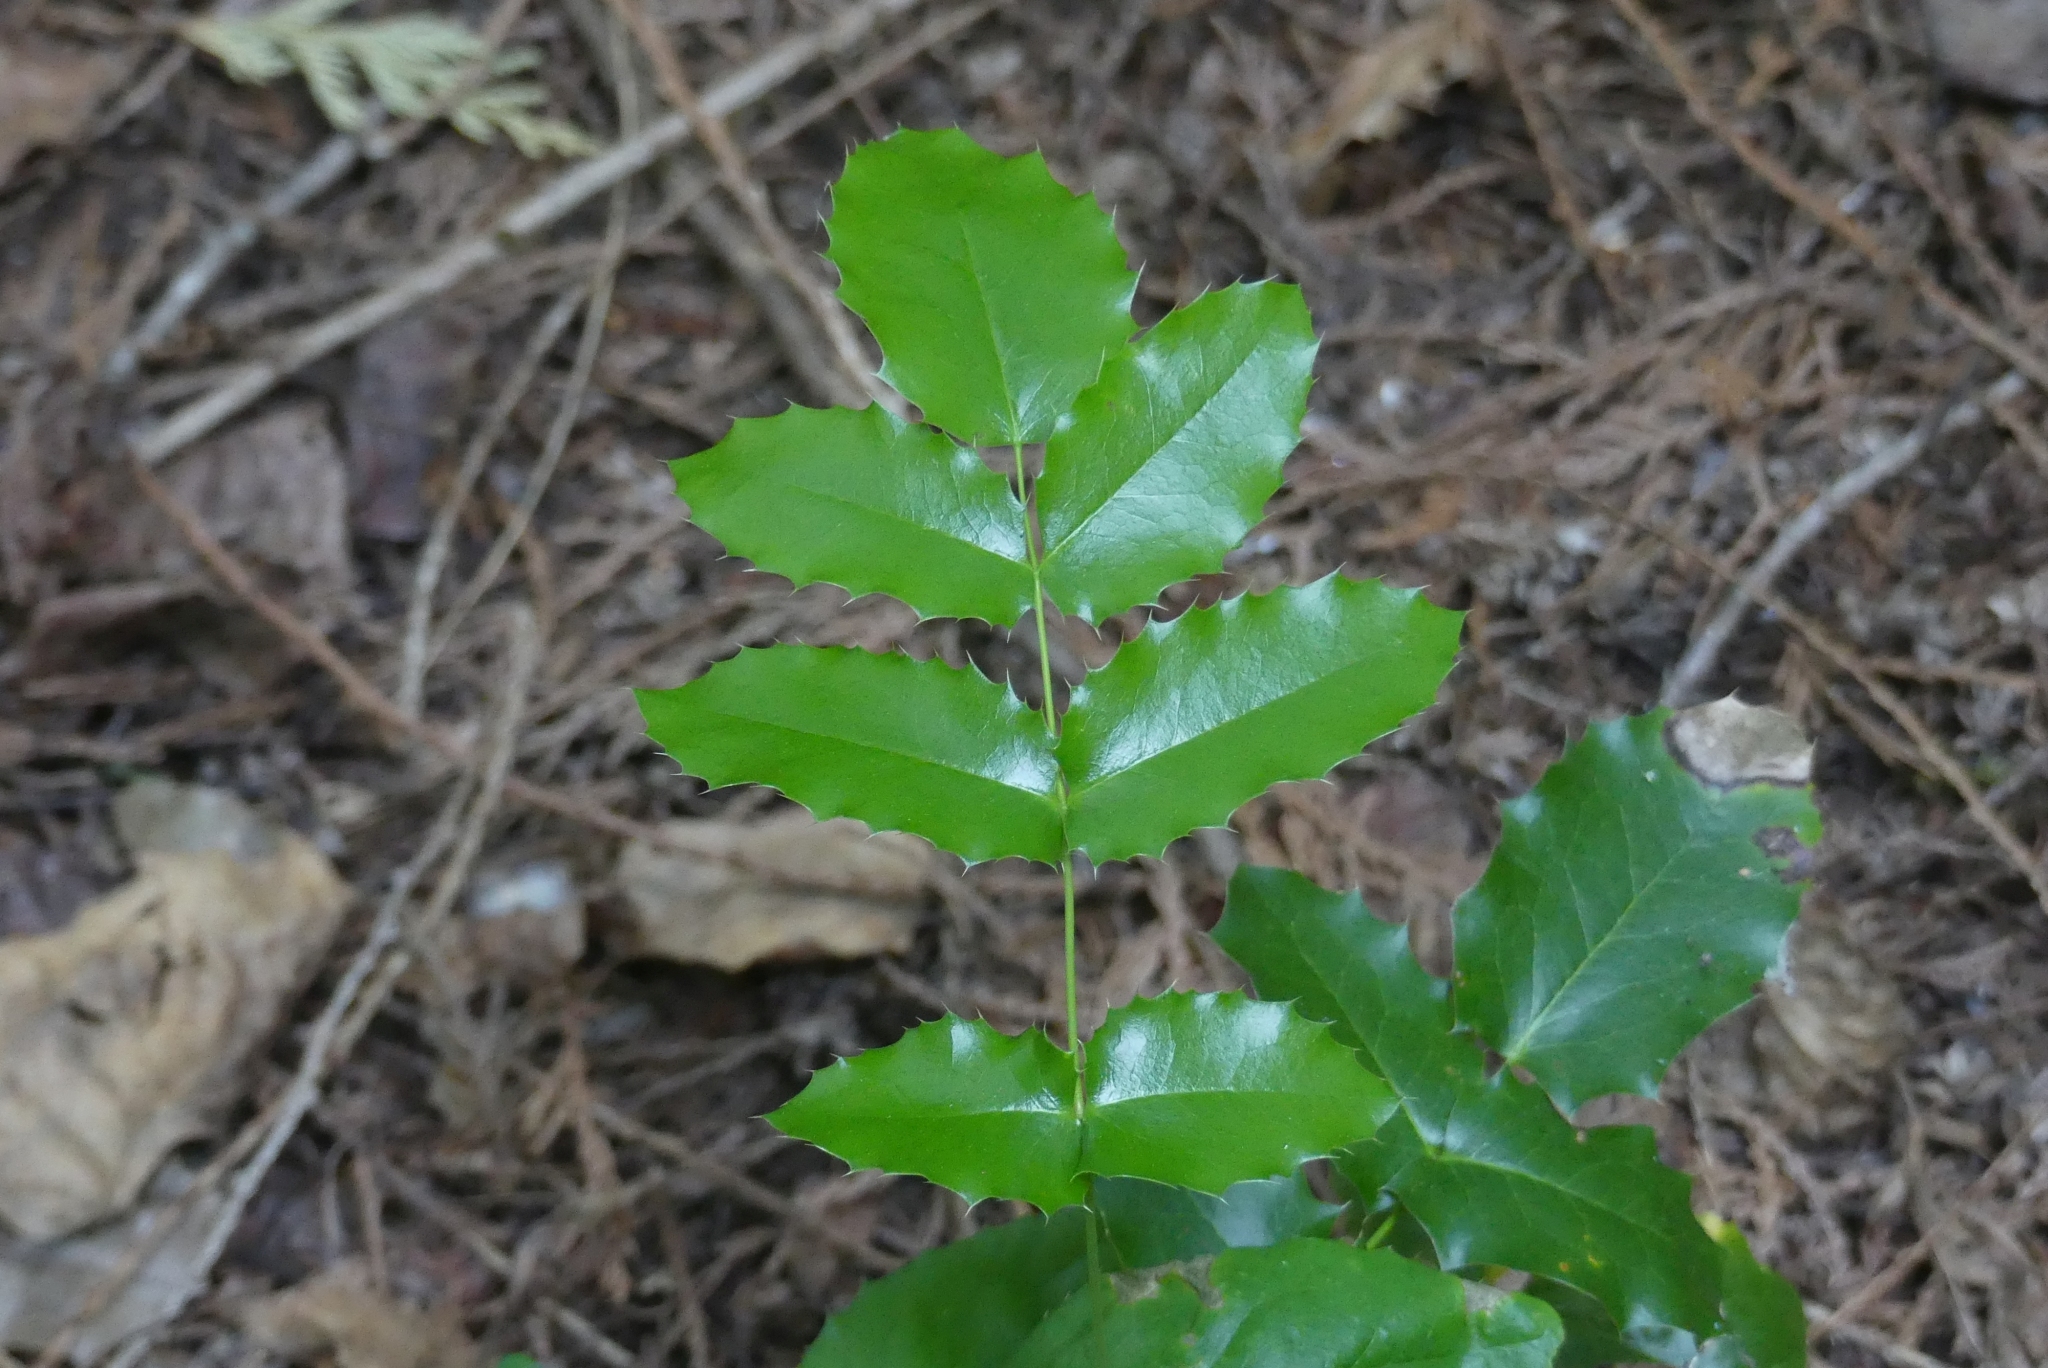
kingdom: Plantae
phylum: Tracheophyta
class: Magnoliopsida
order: Ranunculales
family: Berberidaceae
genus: Mahonia
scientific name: Mahonia aquifolium
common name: Oregon-grape
